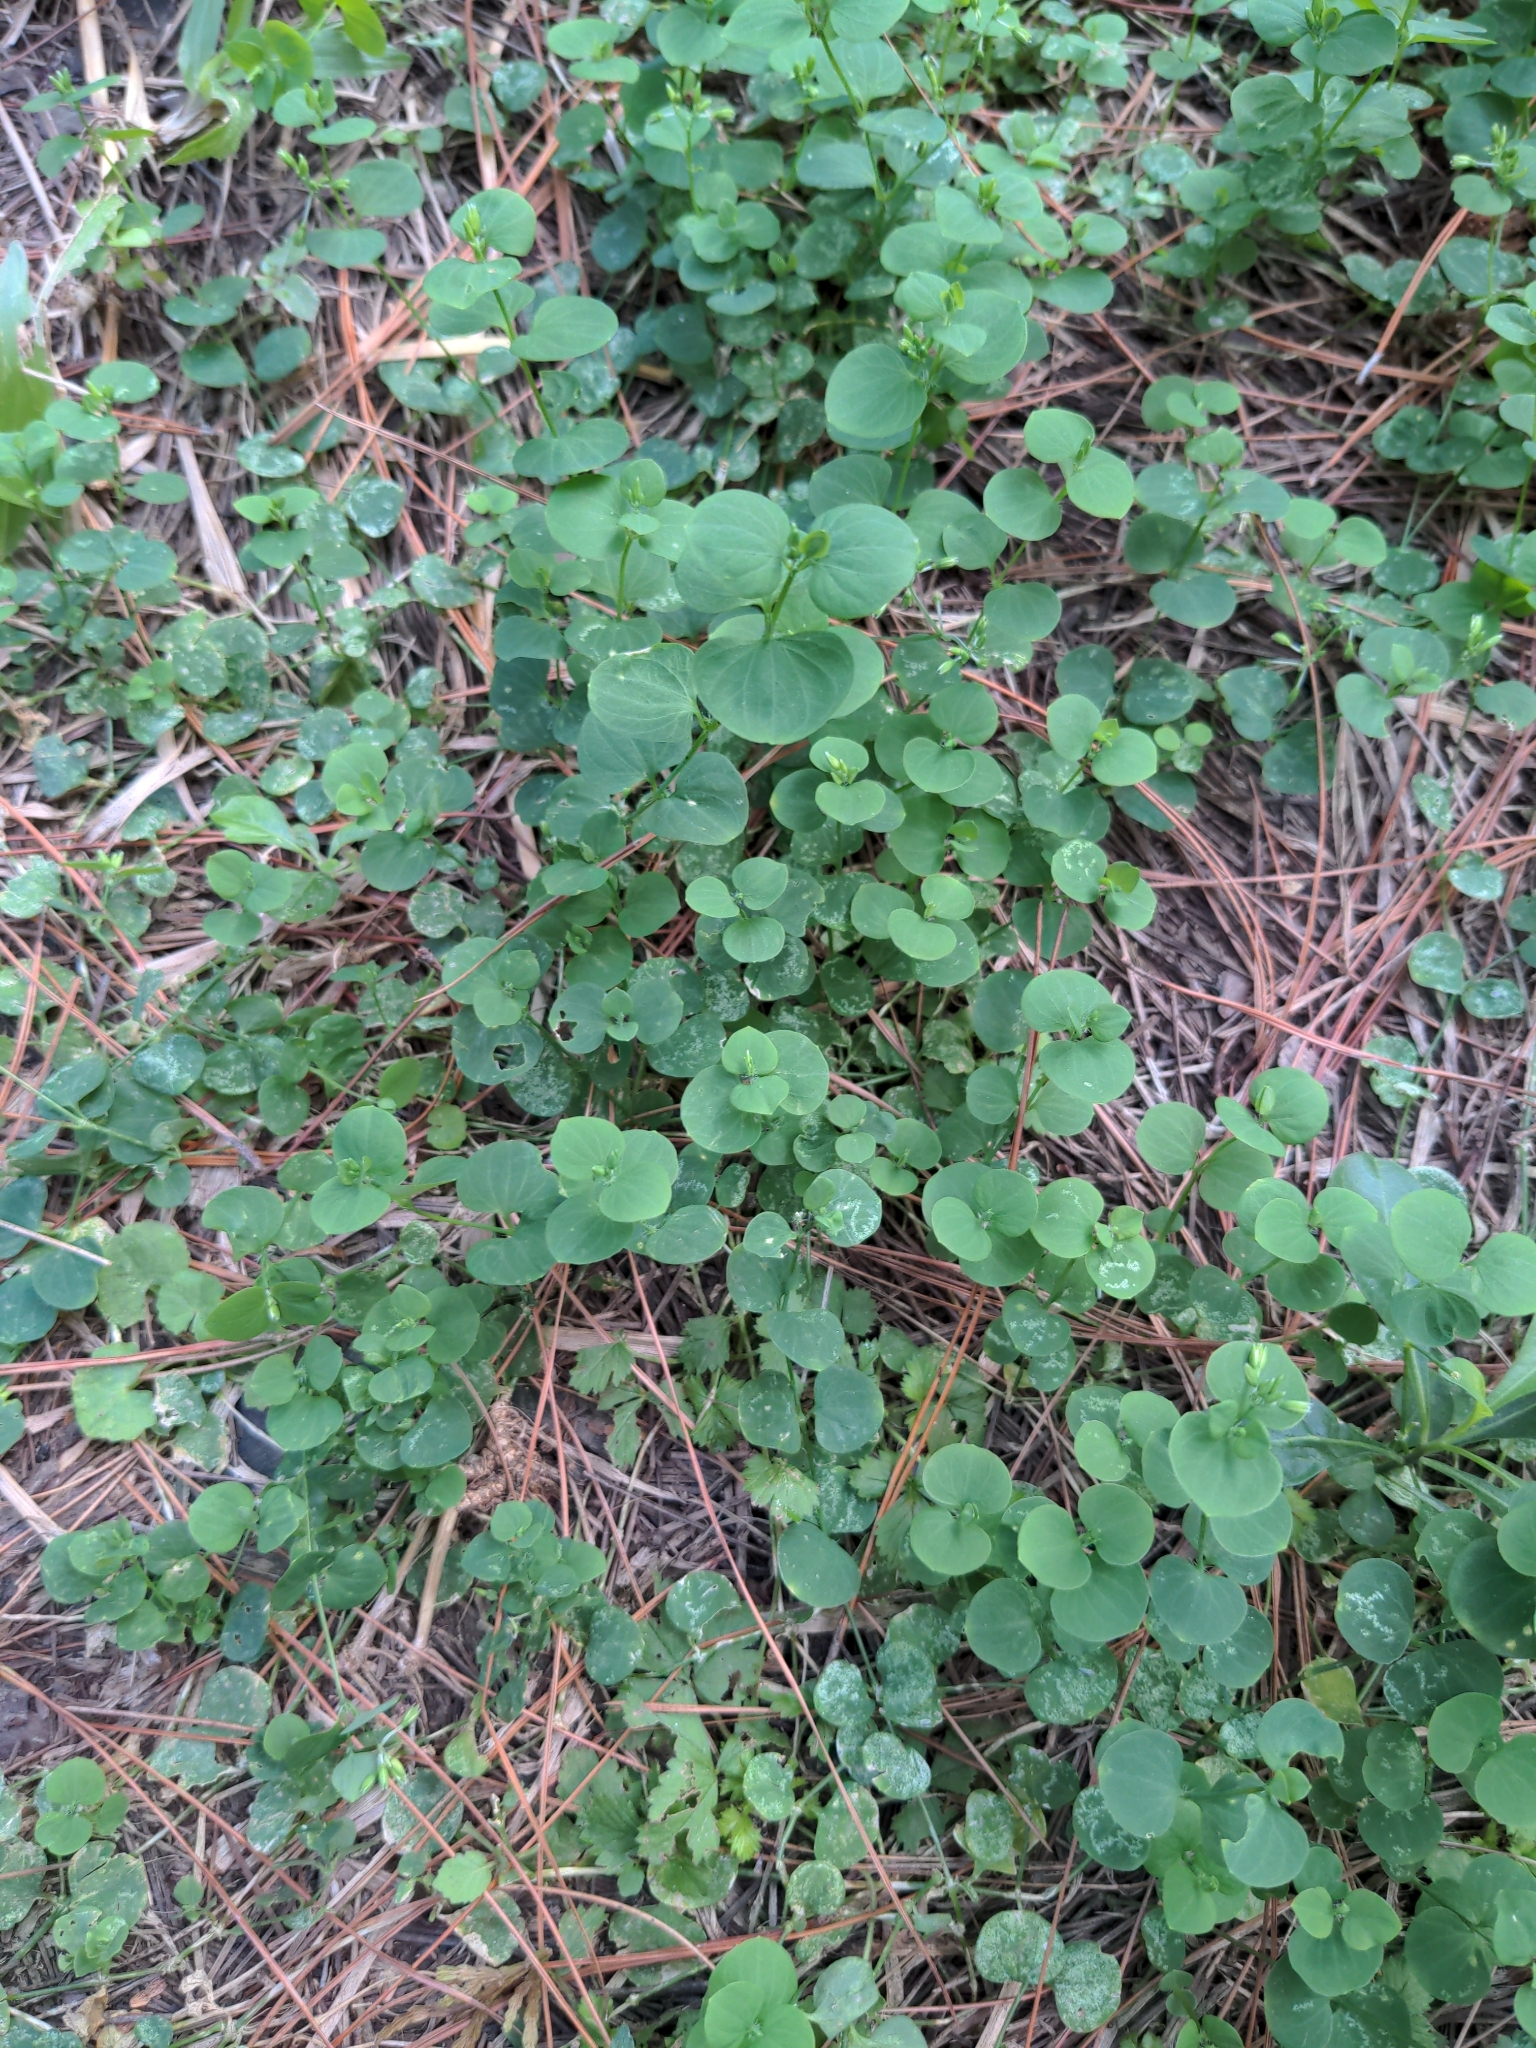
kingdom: Plantae
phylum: Tracheophyta
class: Magnoliopsida
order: Caryophyllales
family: Caryophyllaceae
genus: Drymaria
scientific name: Drymaria cordata
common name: Whitesnow
